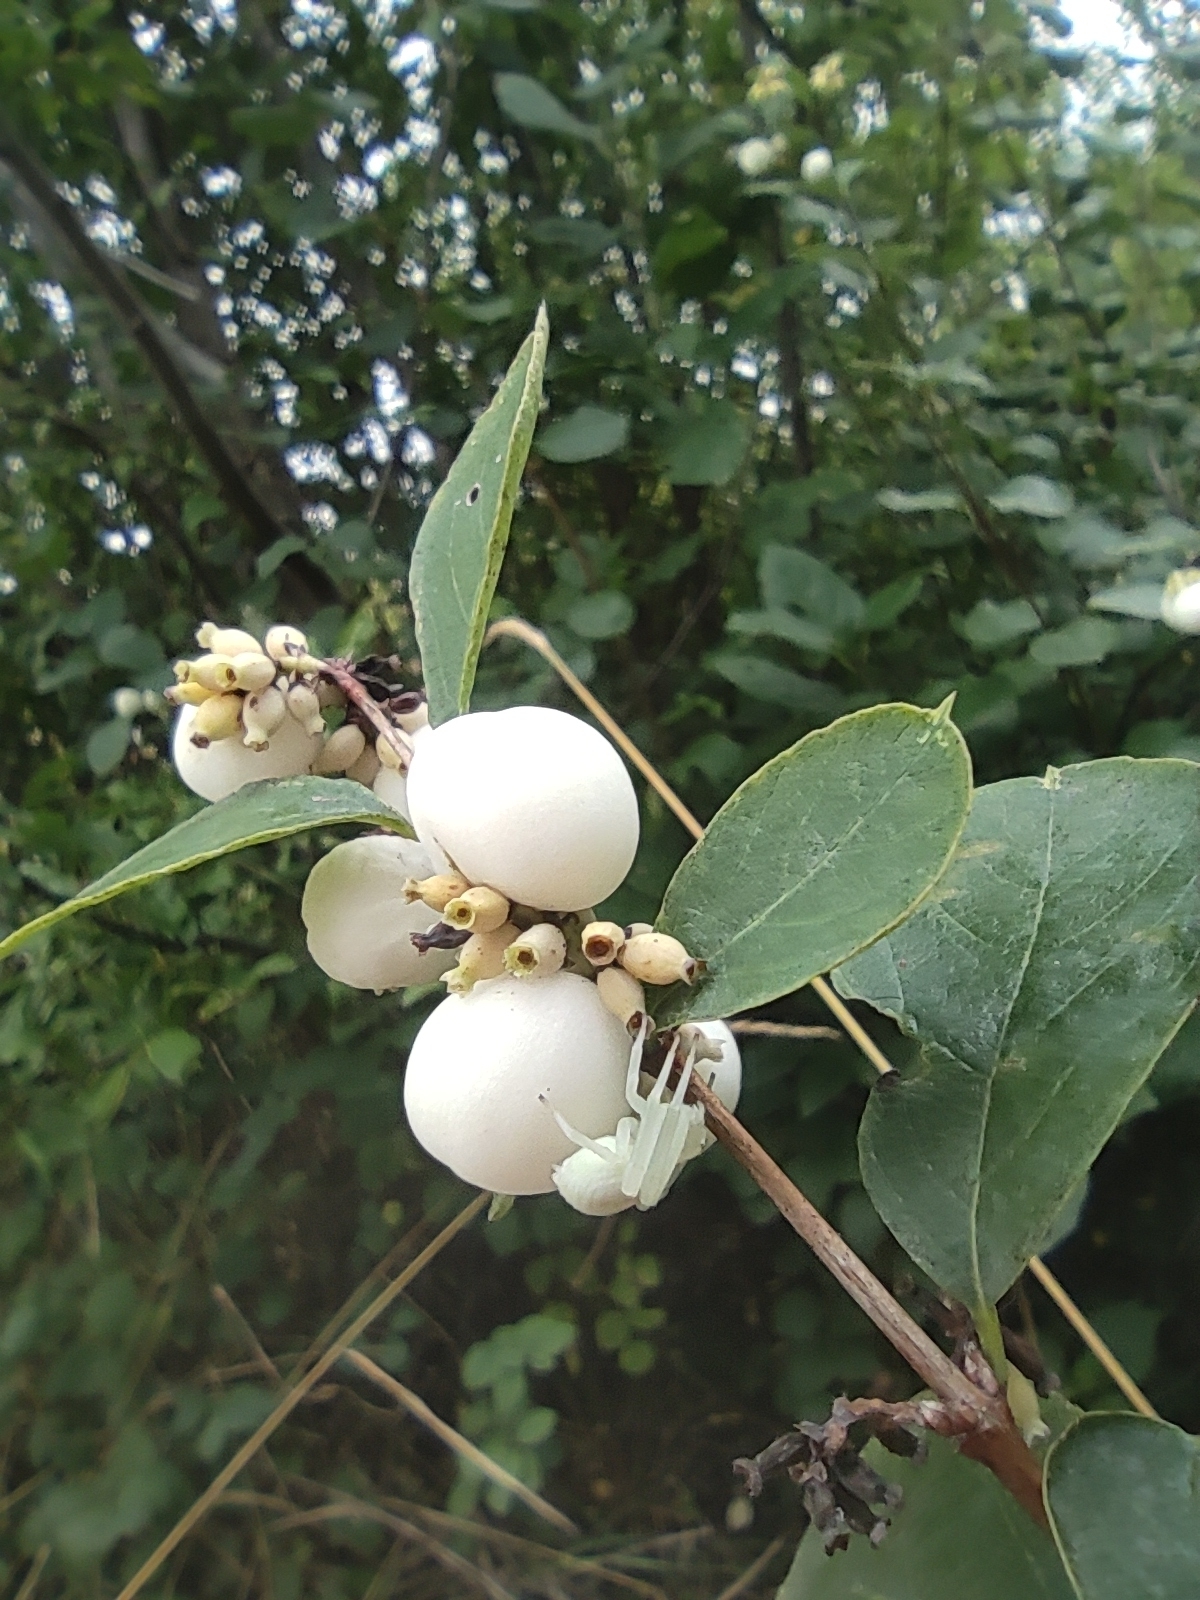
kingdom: Animalia
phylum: Arthropoda
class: Arachnida
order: Araneae
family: Thomisidae
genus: Misumena
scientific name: Misumena vatia
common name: Goldenrod crab spider
